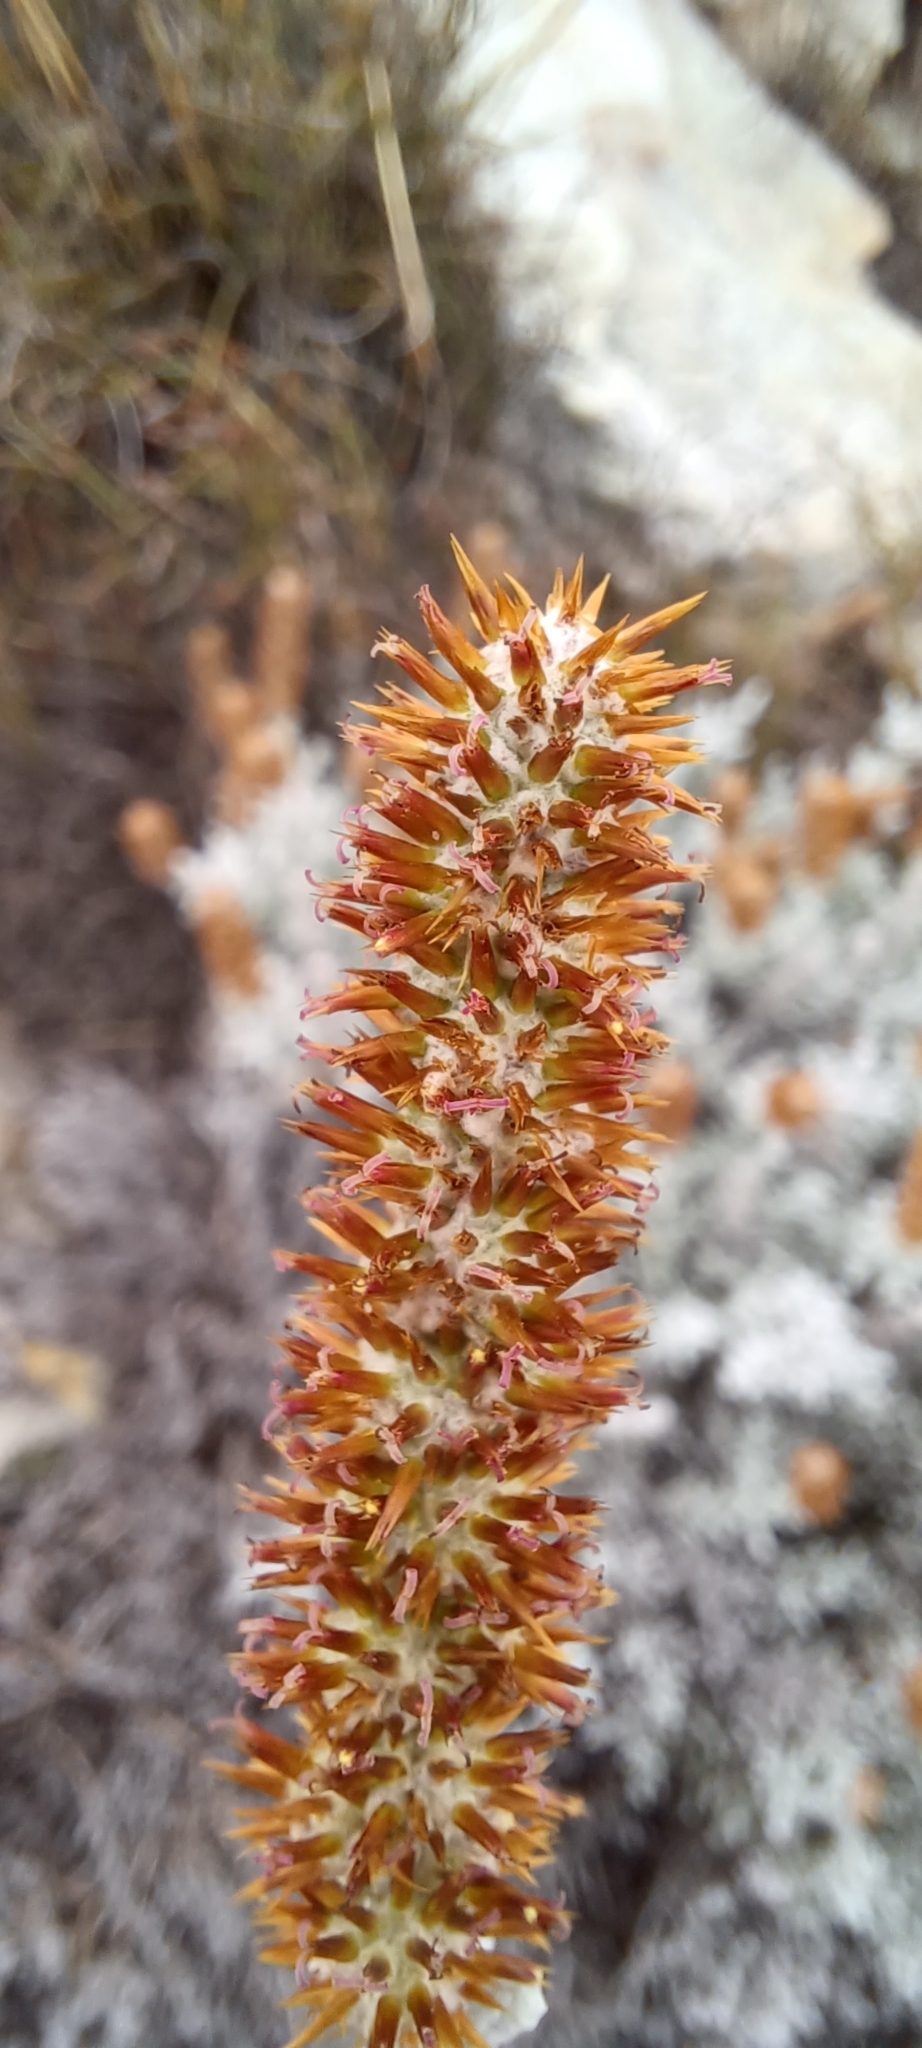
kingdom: Plantae
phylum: Tracheophyta
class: Magnoliopsida
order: Asterales
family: Asteraceae
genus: Seriphium
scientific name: Seriphium
